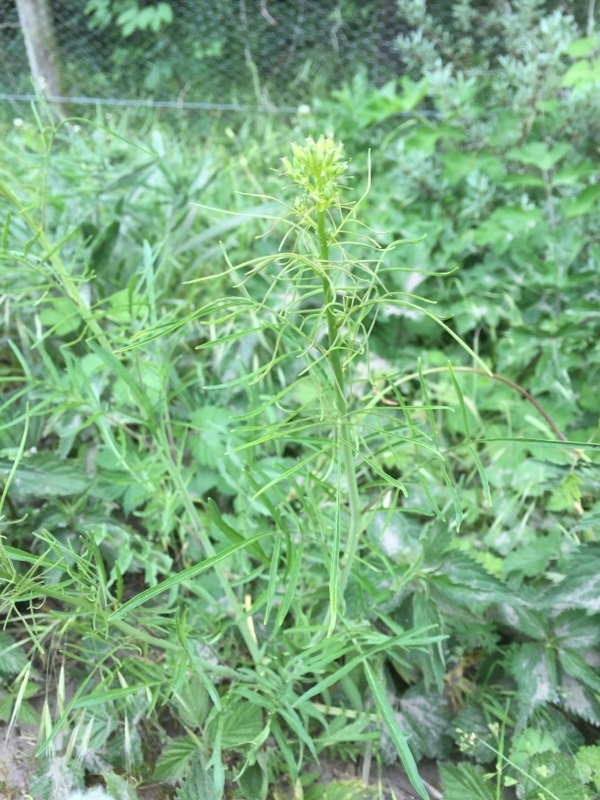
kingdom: Plantae
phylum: Tracheophyta
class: Magnoliopsida
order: Brassicales
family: Brassicaceae
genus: Sisymbrium
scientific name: Sisymbrium altissimum
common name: Tall rocket
